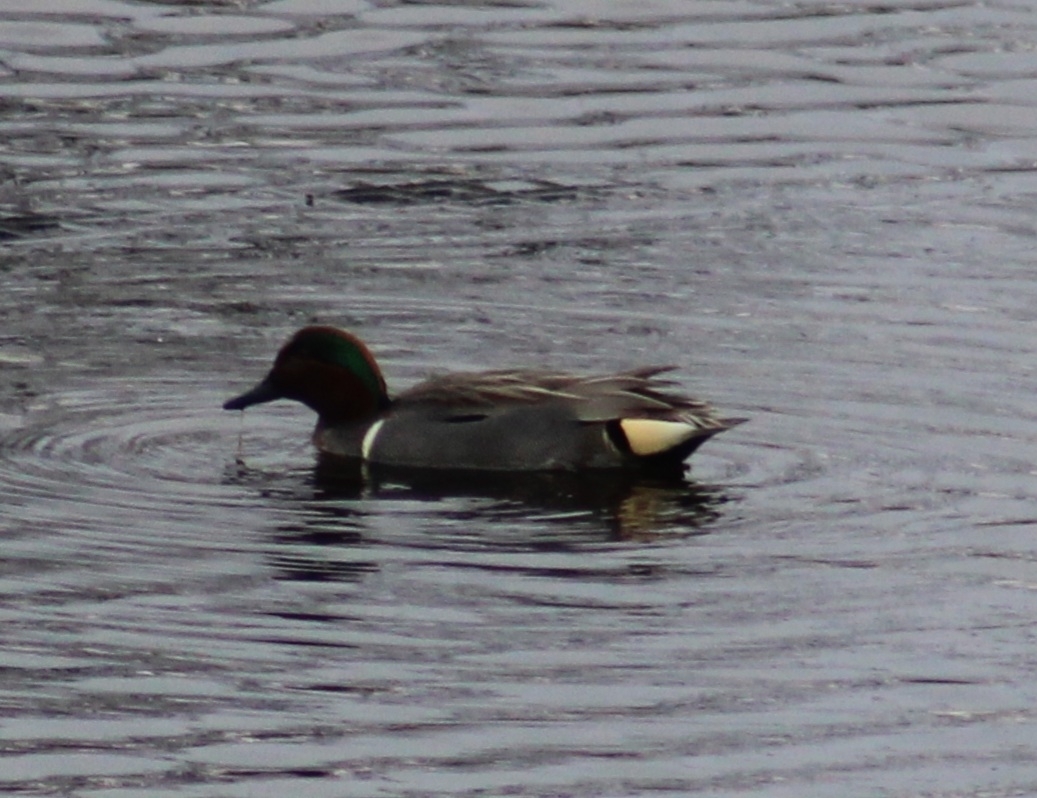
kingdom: Animalia
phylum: Chordata
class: Aves
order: Anseriformes
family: Anatidae
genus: Anas
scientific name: Anas crecca
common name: Eurasian teal
